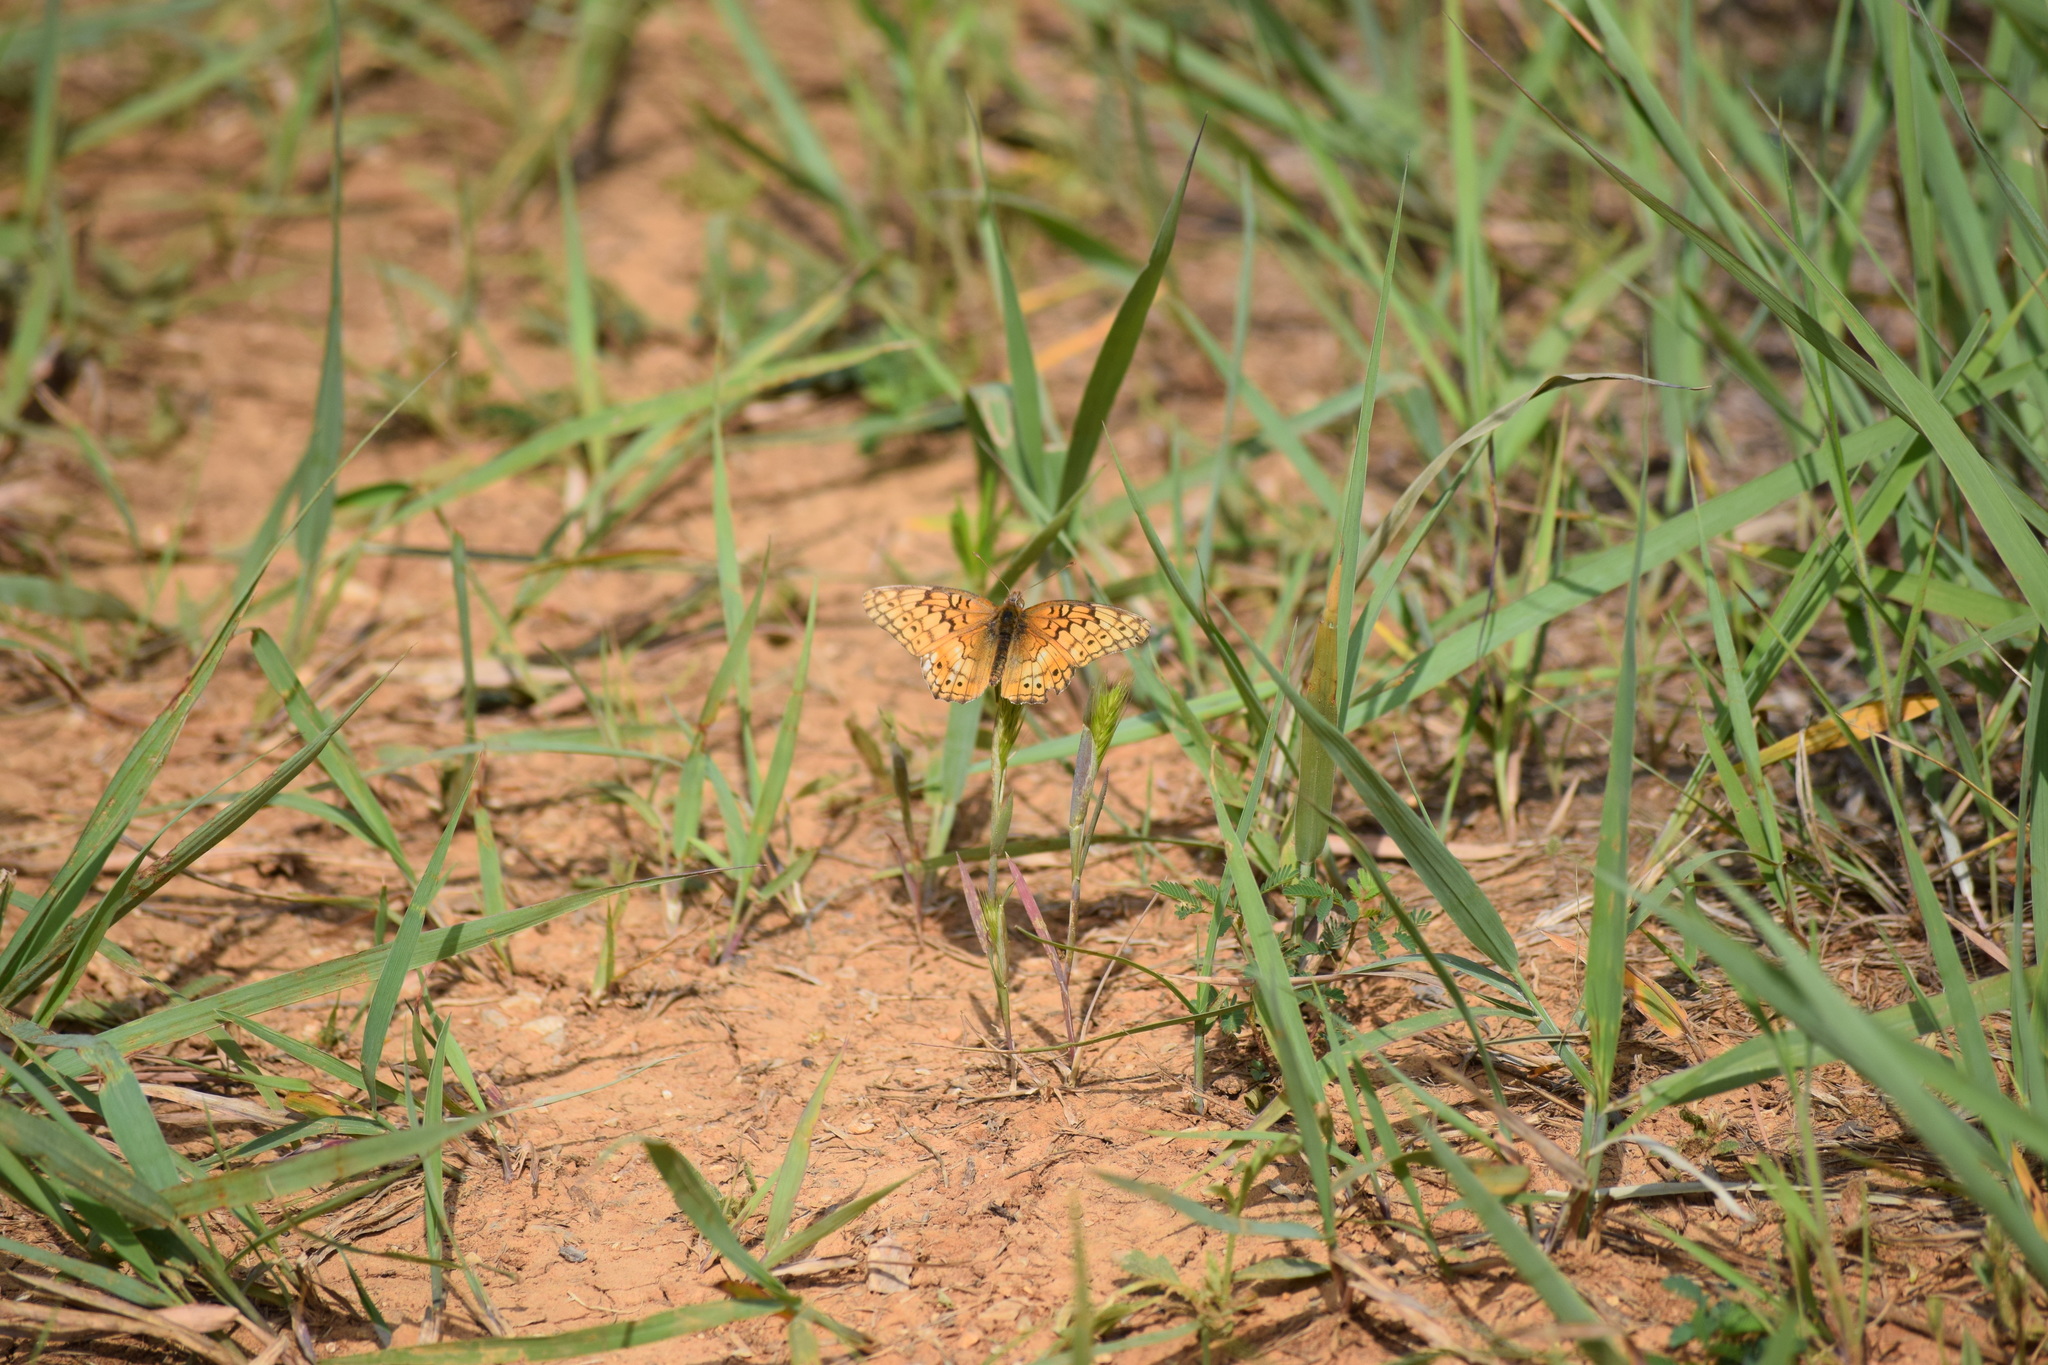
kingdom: Animalia
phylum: Arthropoda
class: Insecta
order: Lepidoptera
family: Nymphalidae
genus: Euptoieta
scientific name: Euptoieta claudia
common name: Variegated fritillary
